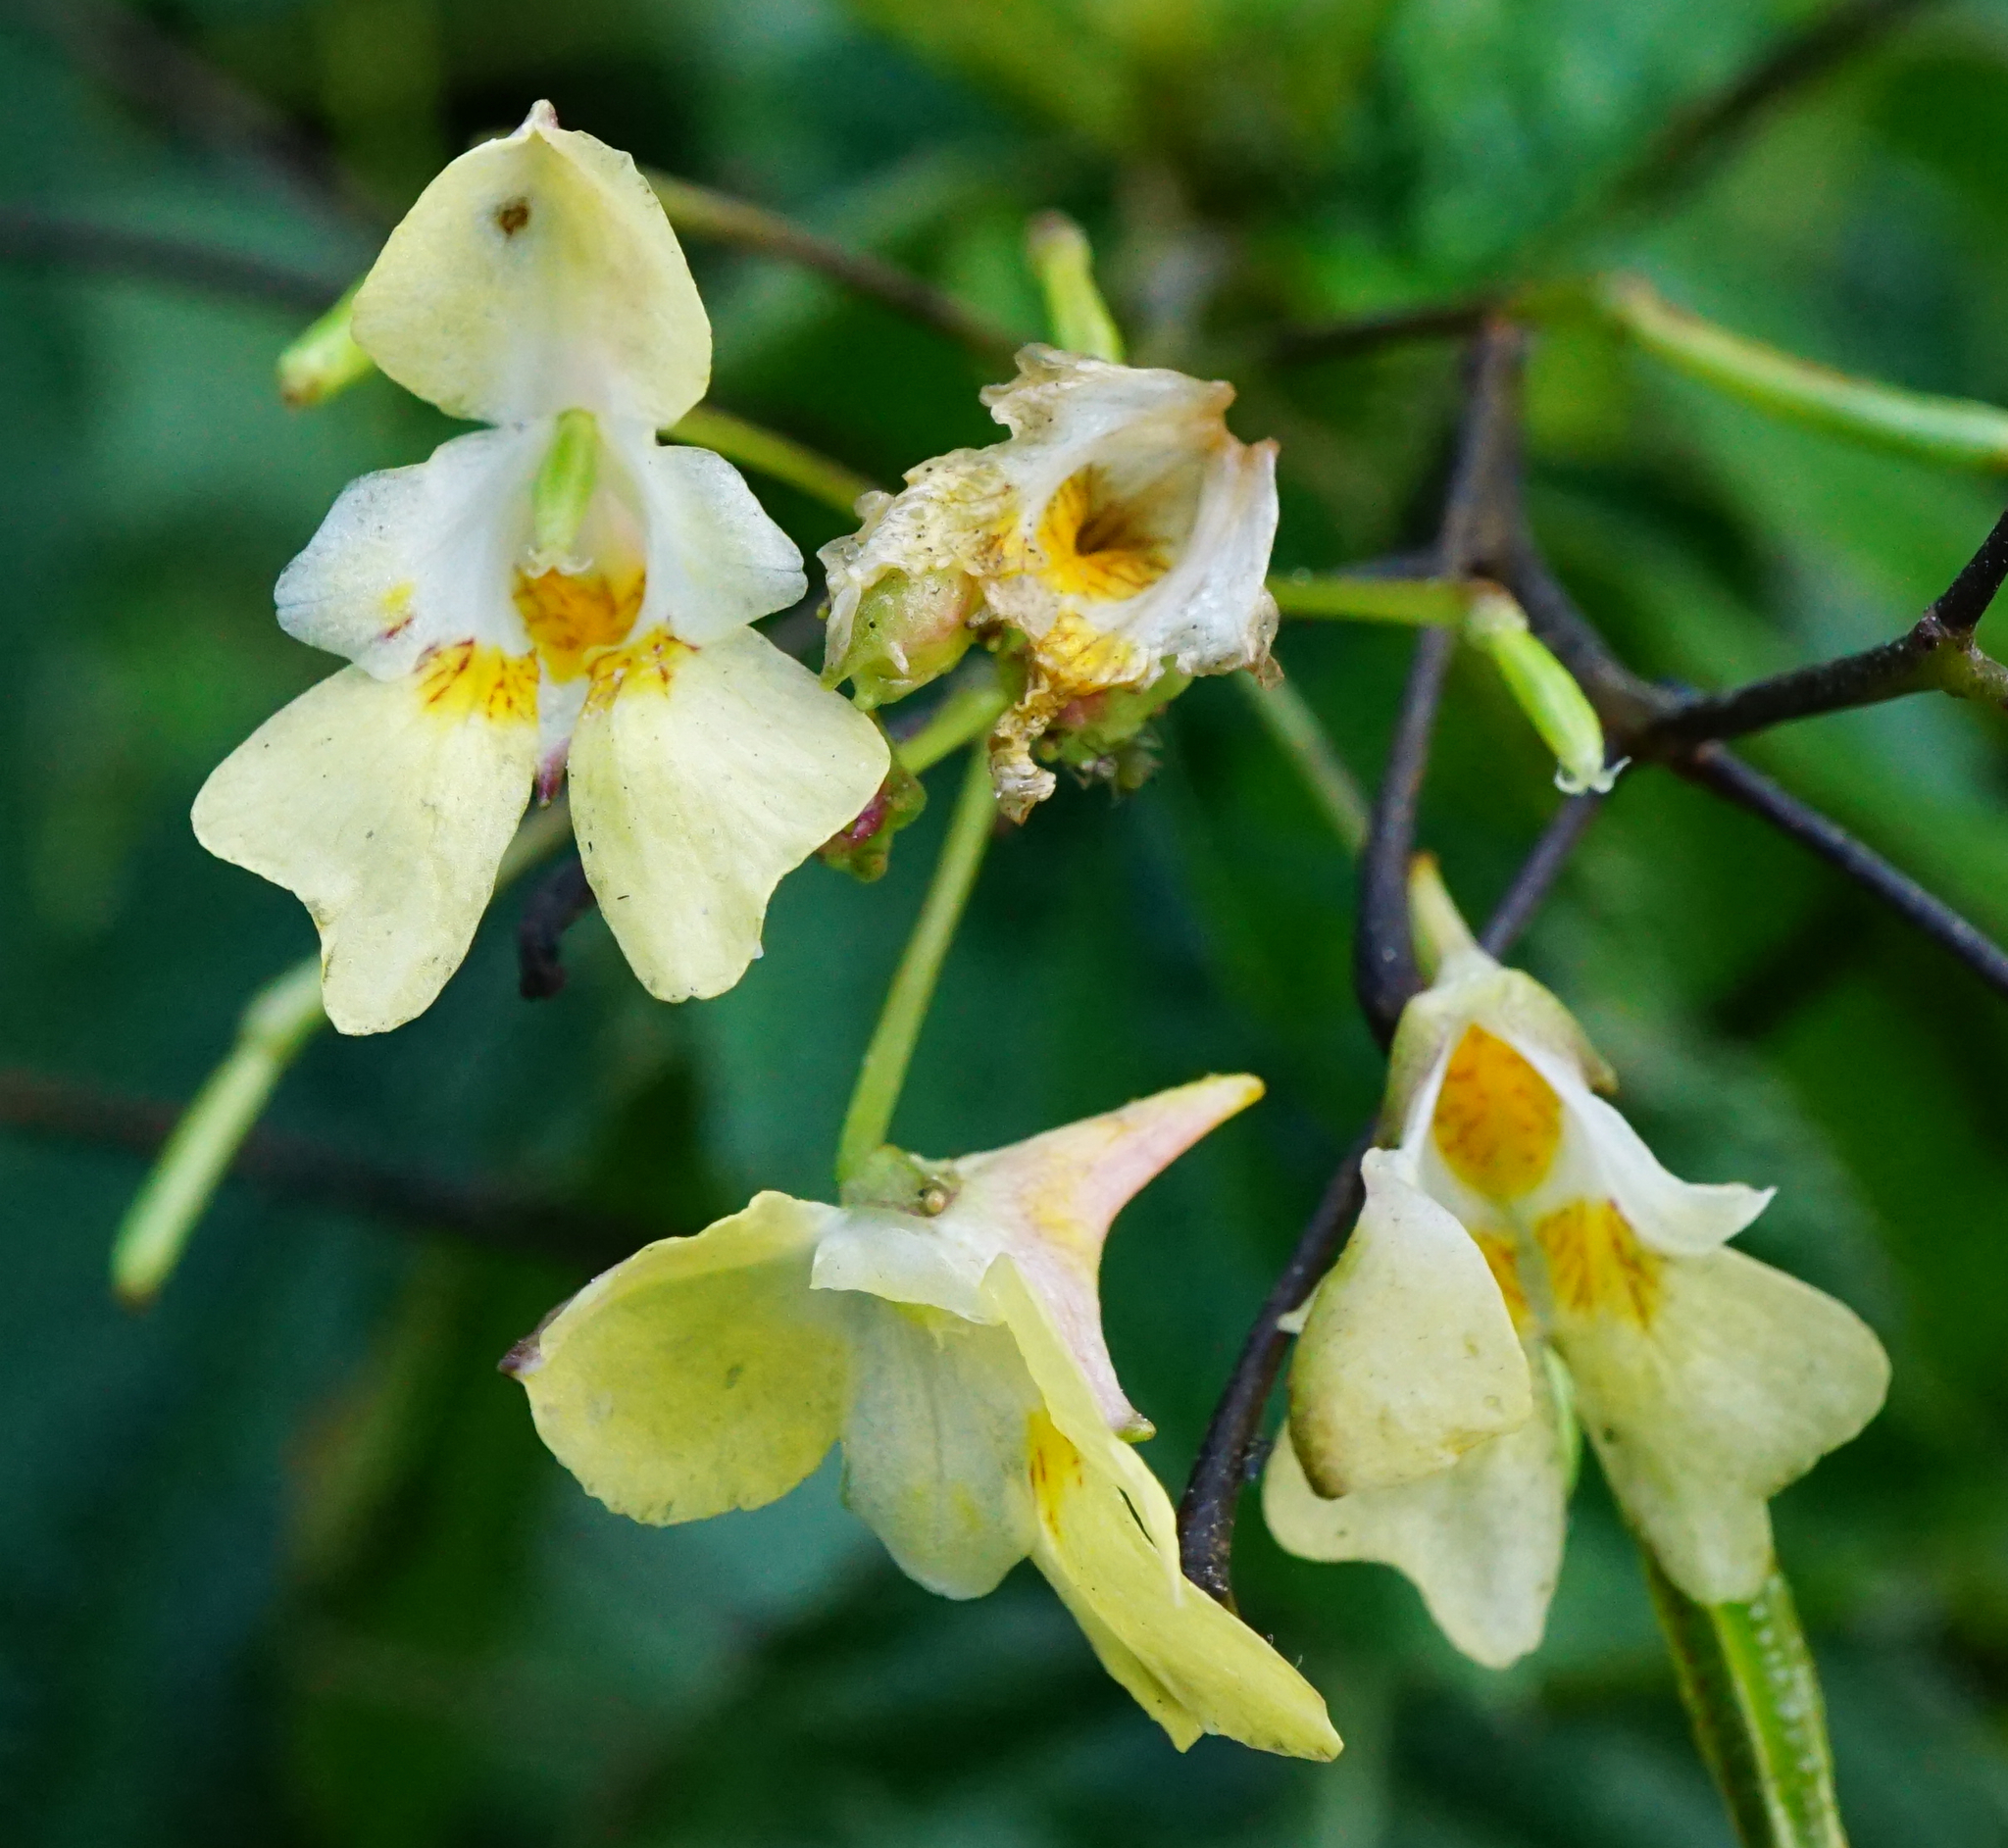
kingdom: Plantae
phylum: Tracheophyta
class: Magnoliopsida
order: Ericales
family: Balsaminaceae
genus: Impatiens
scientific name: Impatiens parviflora
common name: Small balsam
